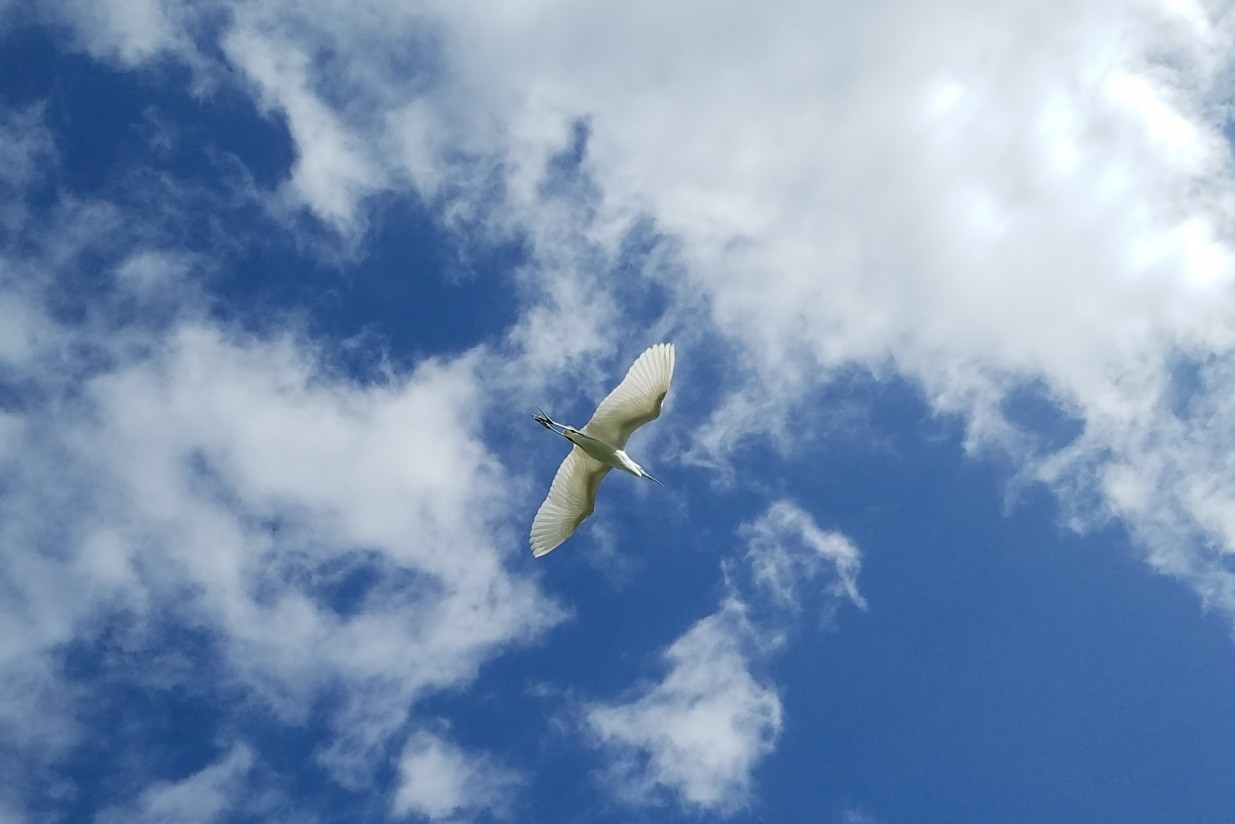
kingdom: Animalia
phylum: Chordata
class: Aves
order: Pelecaniformes
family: Ardeidae
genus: Egretta
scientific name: Egretta thula
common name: Snowy egret
